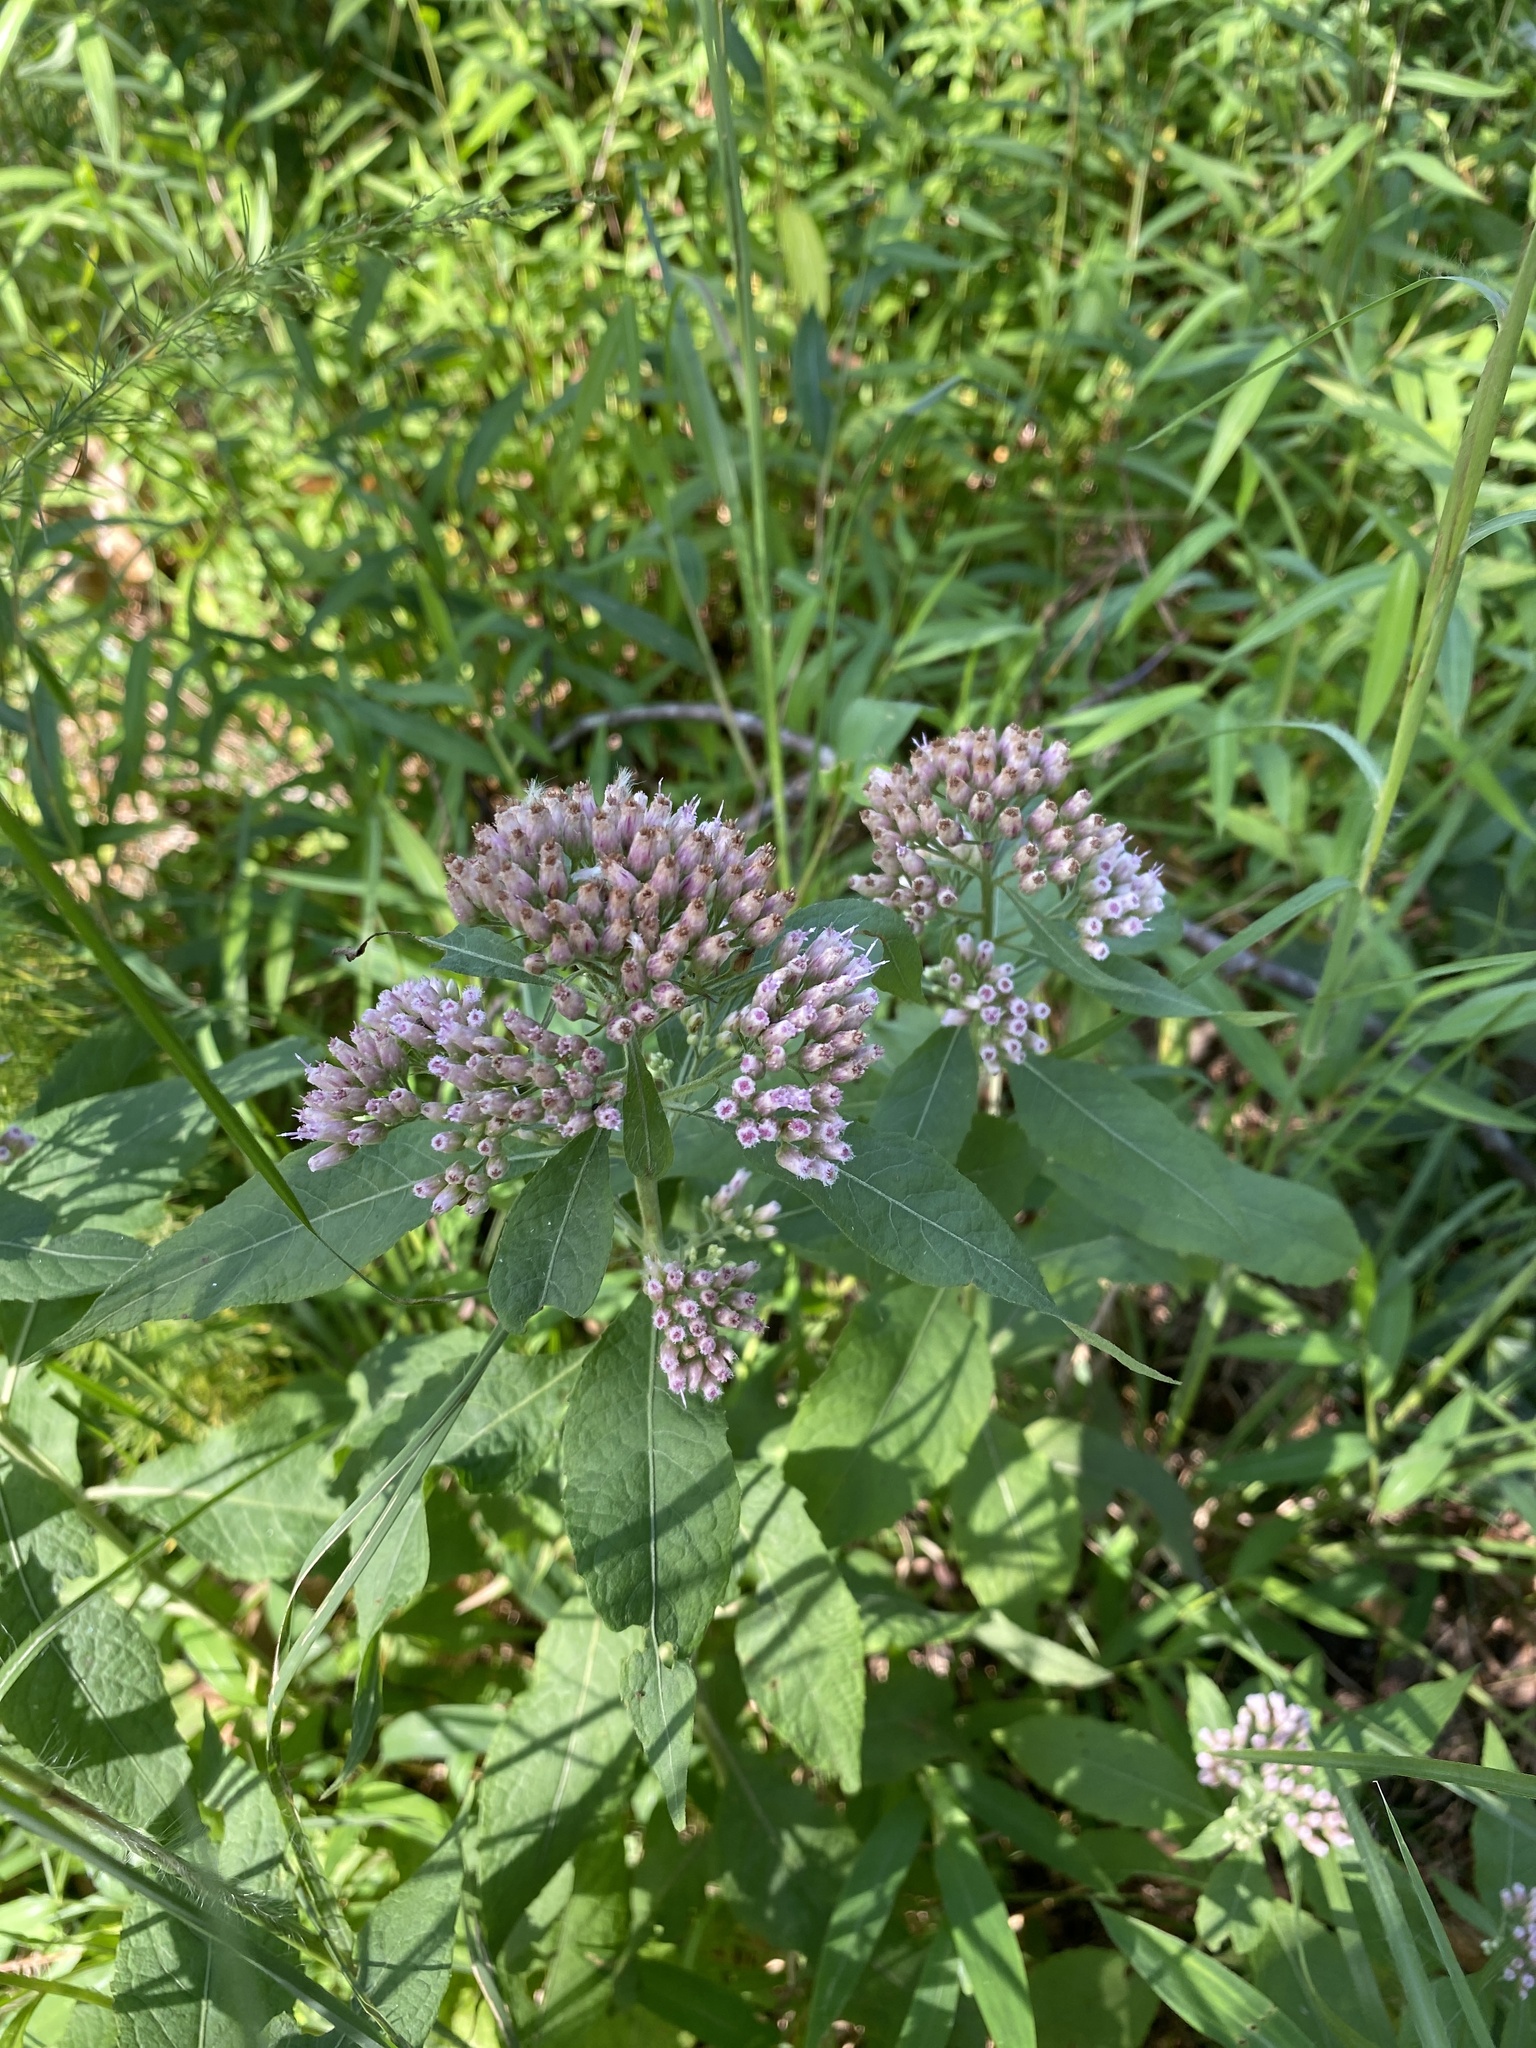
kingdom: Plantae
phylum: Tracheophyta
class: Magnoliopsida
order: Asterales
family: Asteraceae
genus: Pluchea
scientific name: Pluchea camphorata
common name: Camphor pluchea
